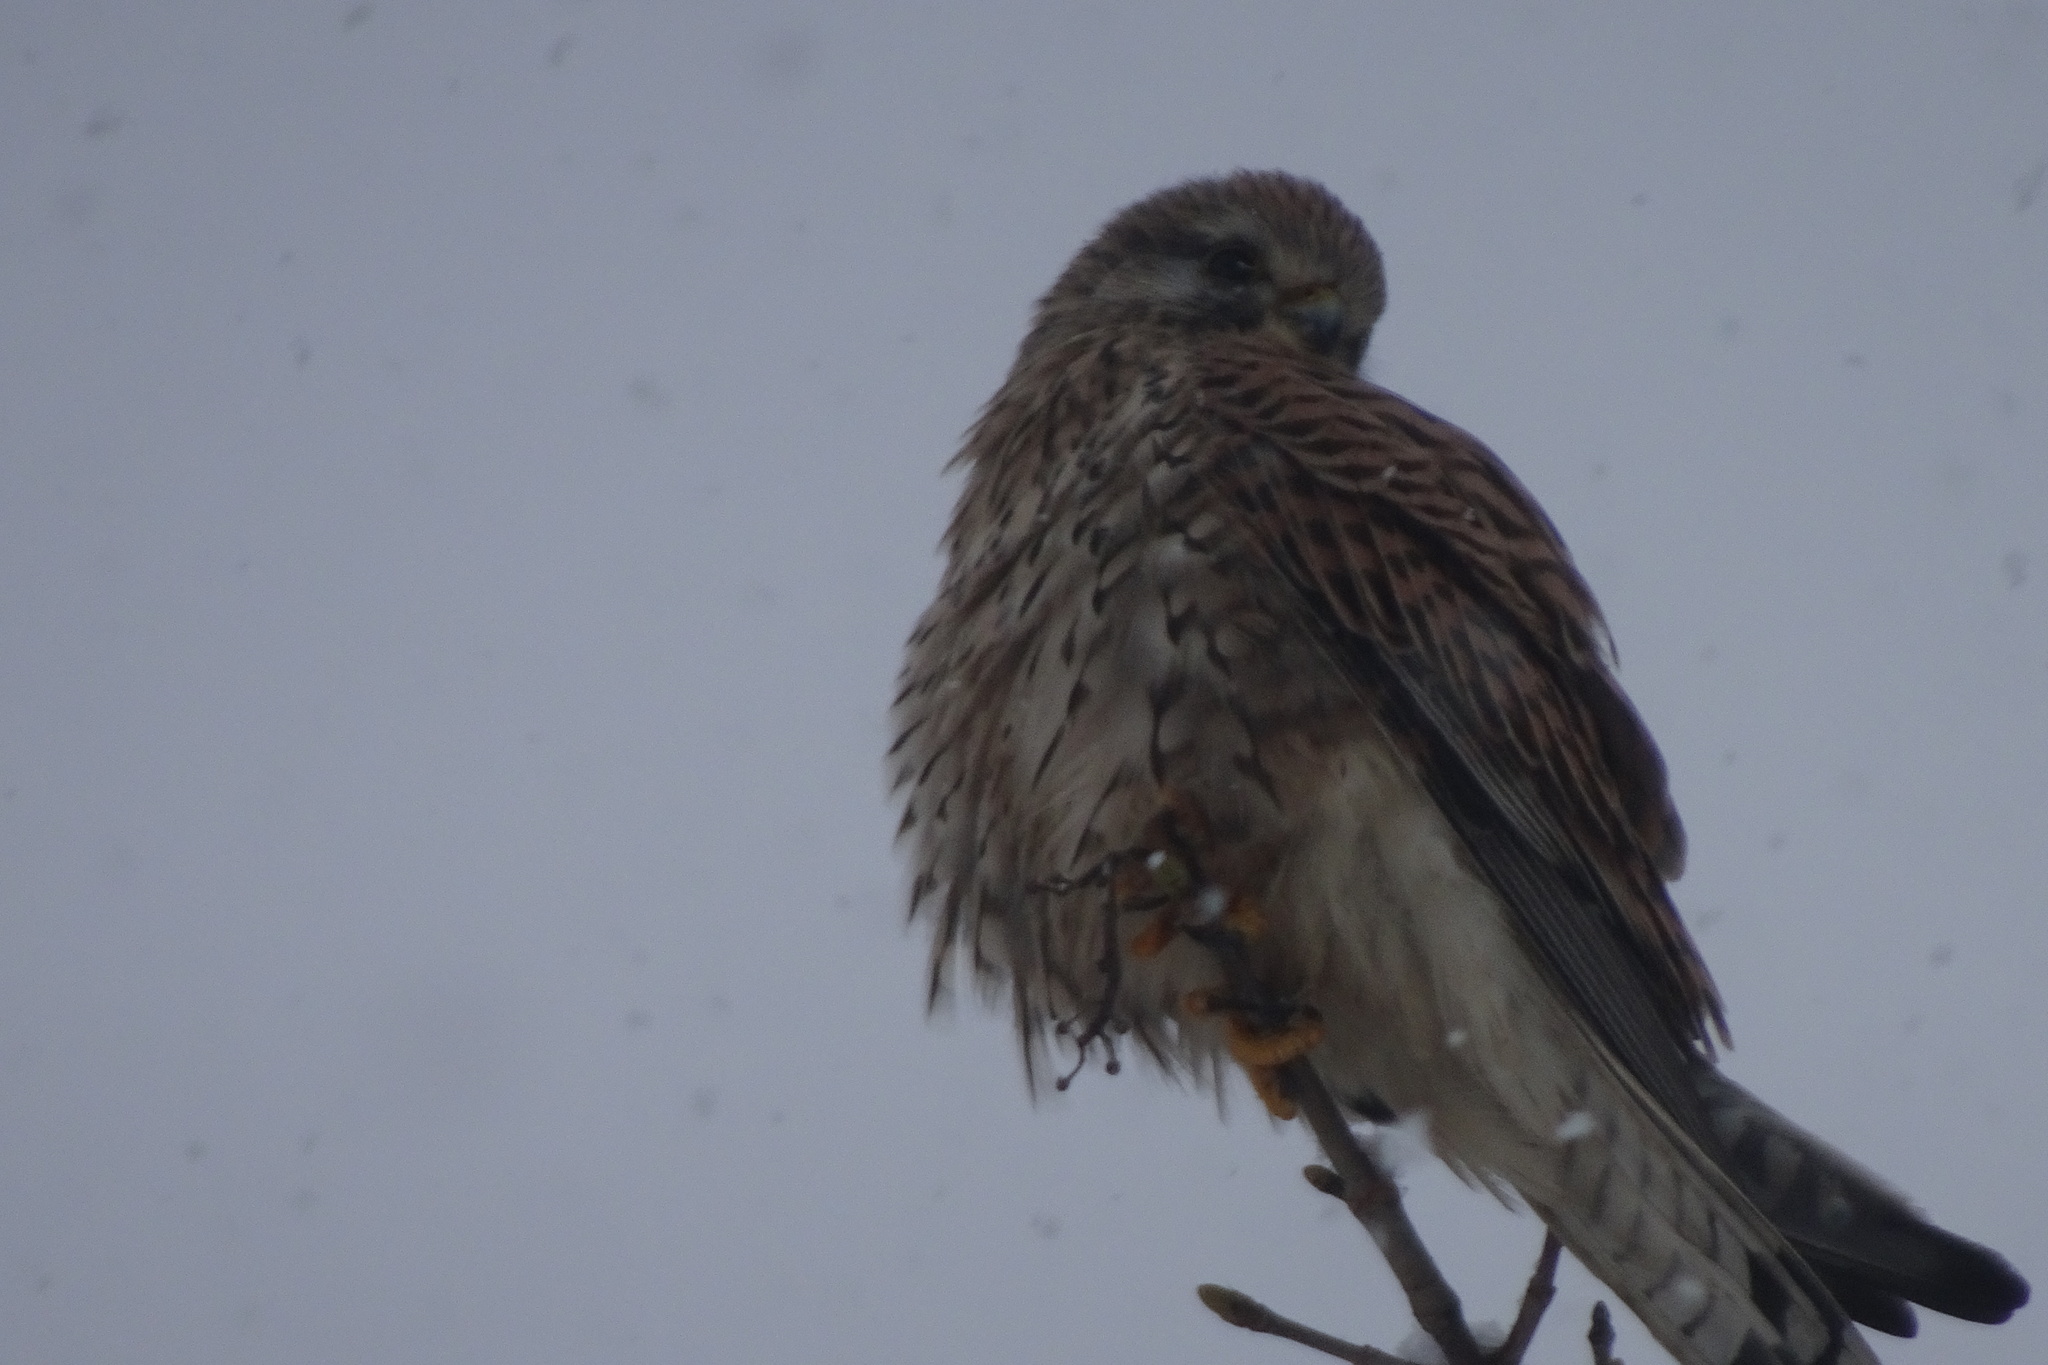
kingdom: Animalia
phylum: Chordata
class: Aves
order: Falconiformes
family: Falconidae
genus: Falco
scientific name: Falco tinnunculus
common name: Common kestrel
